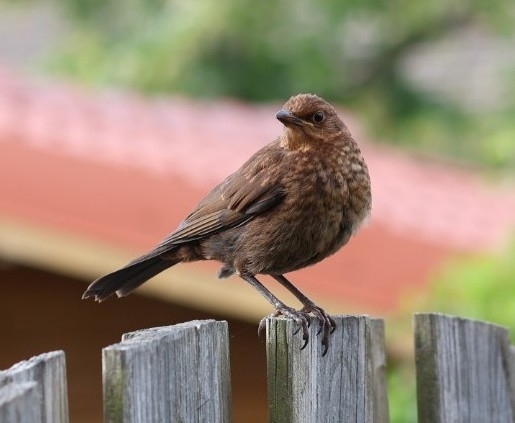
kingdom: Animalia
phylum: Chordata
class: Aves
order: Passeriformes
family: Turdidae
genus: Turdus
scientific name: Turdus merula
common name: Common blackbird
